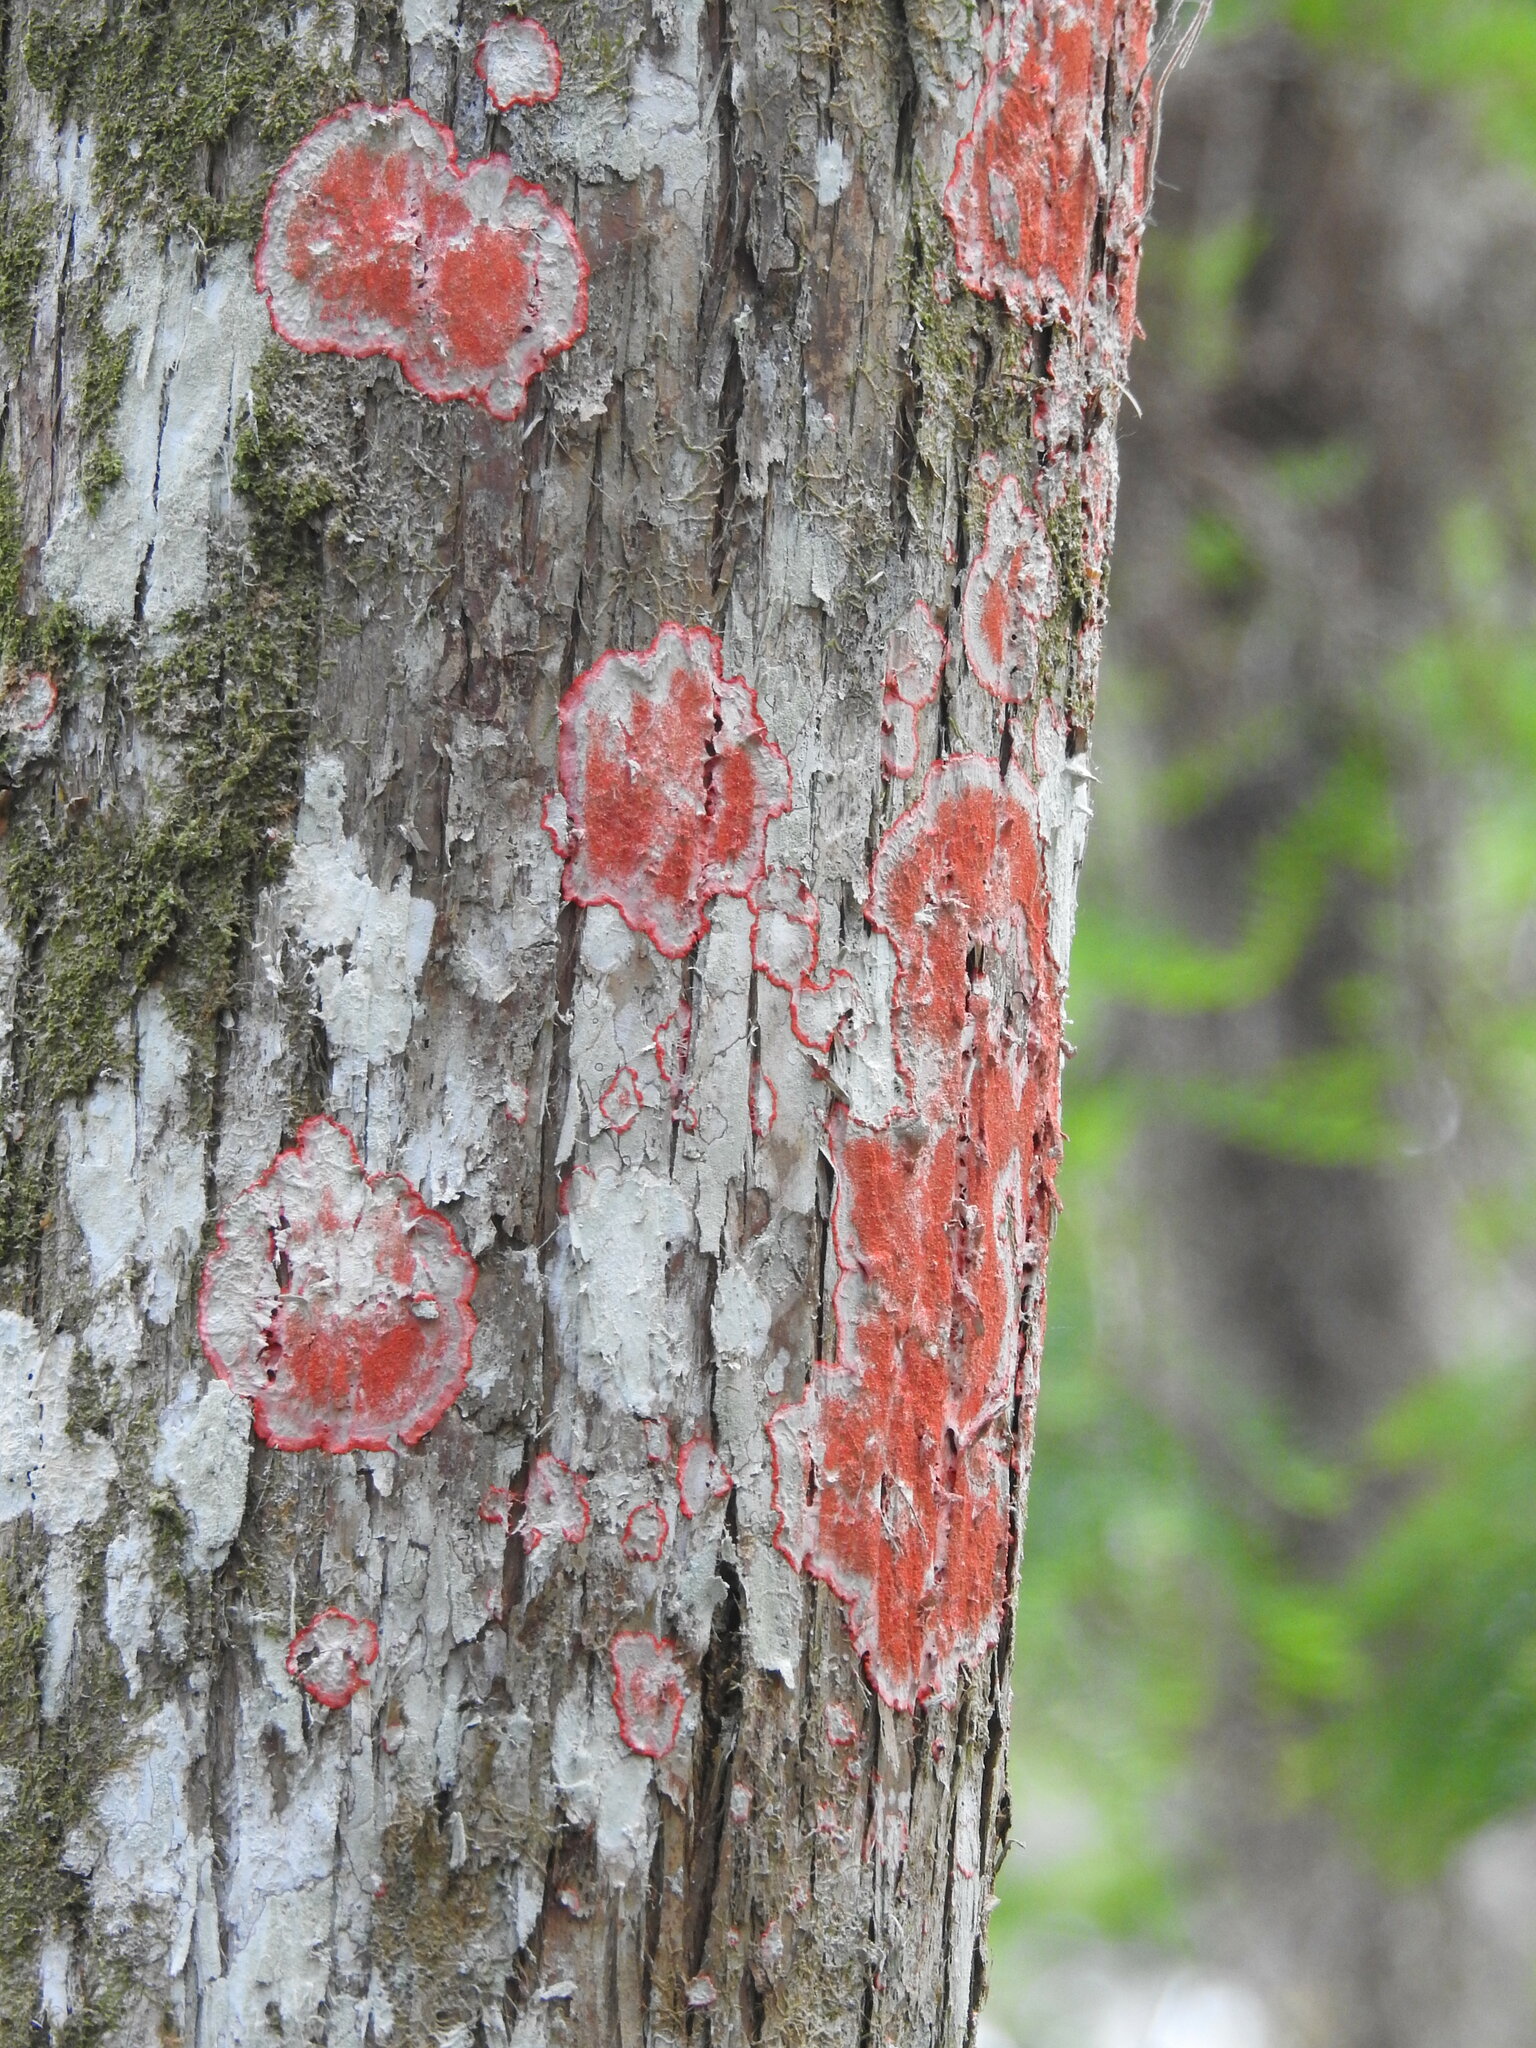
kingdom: Fungi
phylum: Ascomycota
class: Arthoniomycetes
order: Arthoniales
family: Arthoniaceae
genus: Herpothallon
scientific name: Herpothallon rubrocinctum
